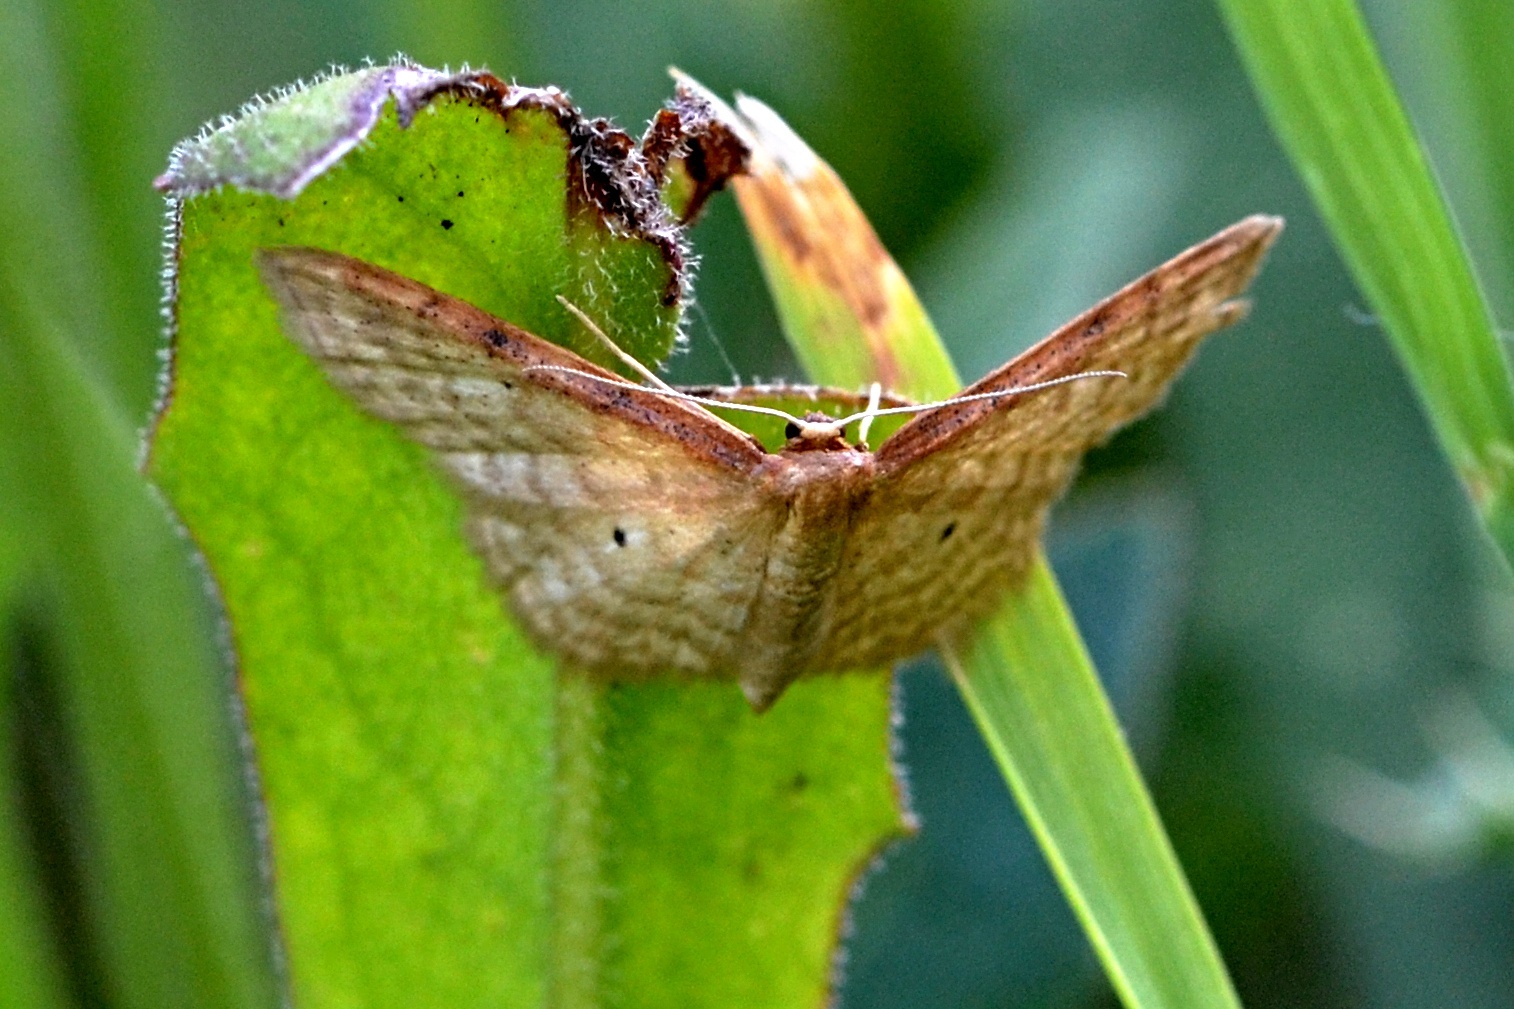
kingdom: Animalia
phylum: Arthropoda
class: Insecta
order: Lepidoptera
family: Geometridae
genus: Idaea
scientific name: Idaea humiliata
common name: Isle of wight wave
